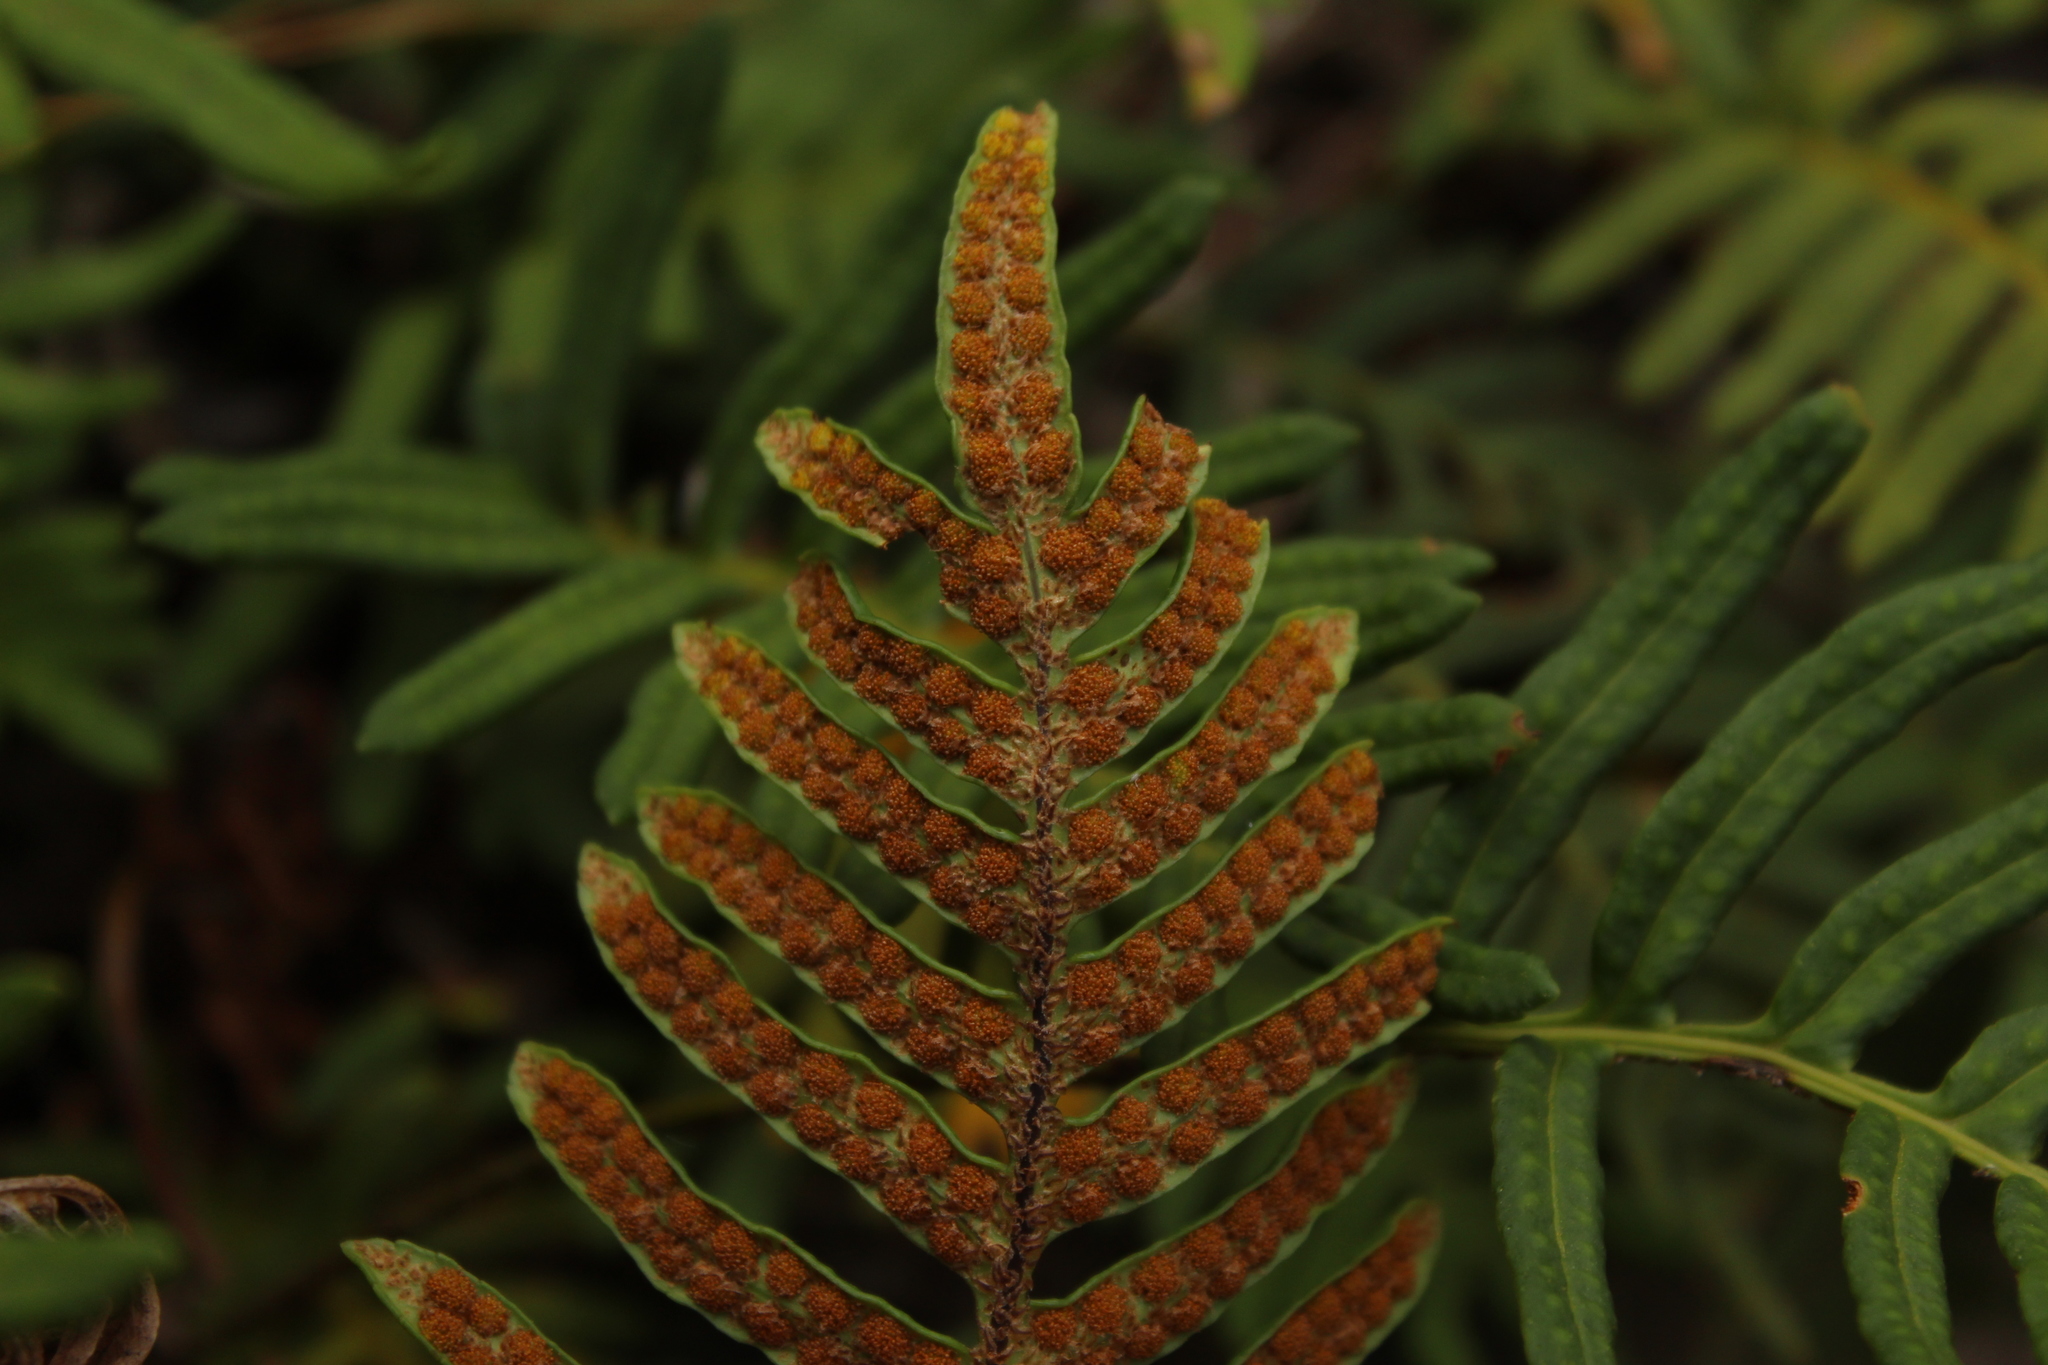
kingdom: Plantae
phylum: Tracheophyta
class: Polypodiopsida
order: Polypodiales
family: Polypodiaceae
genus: Pleopeltis
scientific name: Pleopeltis orientalis
